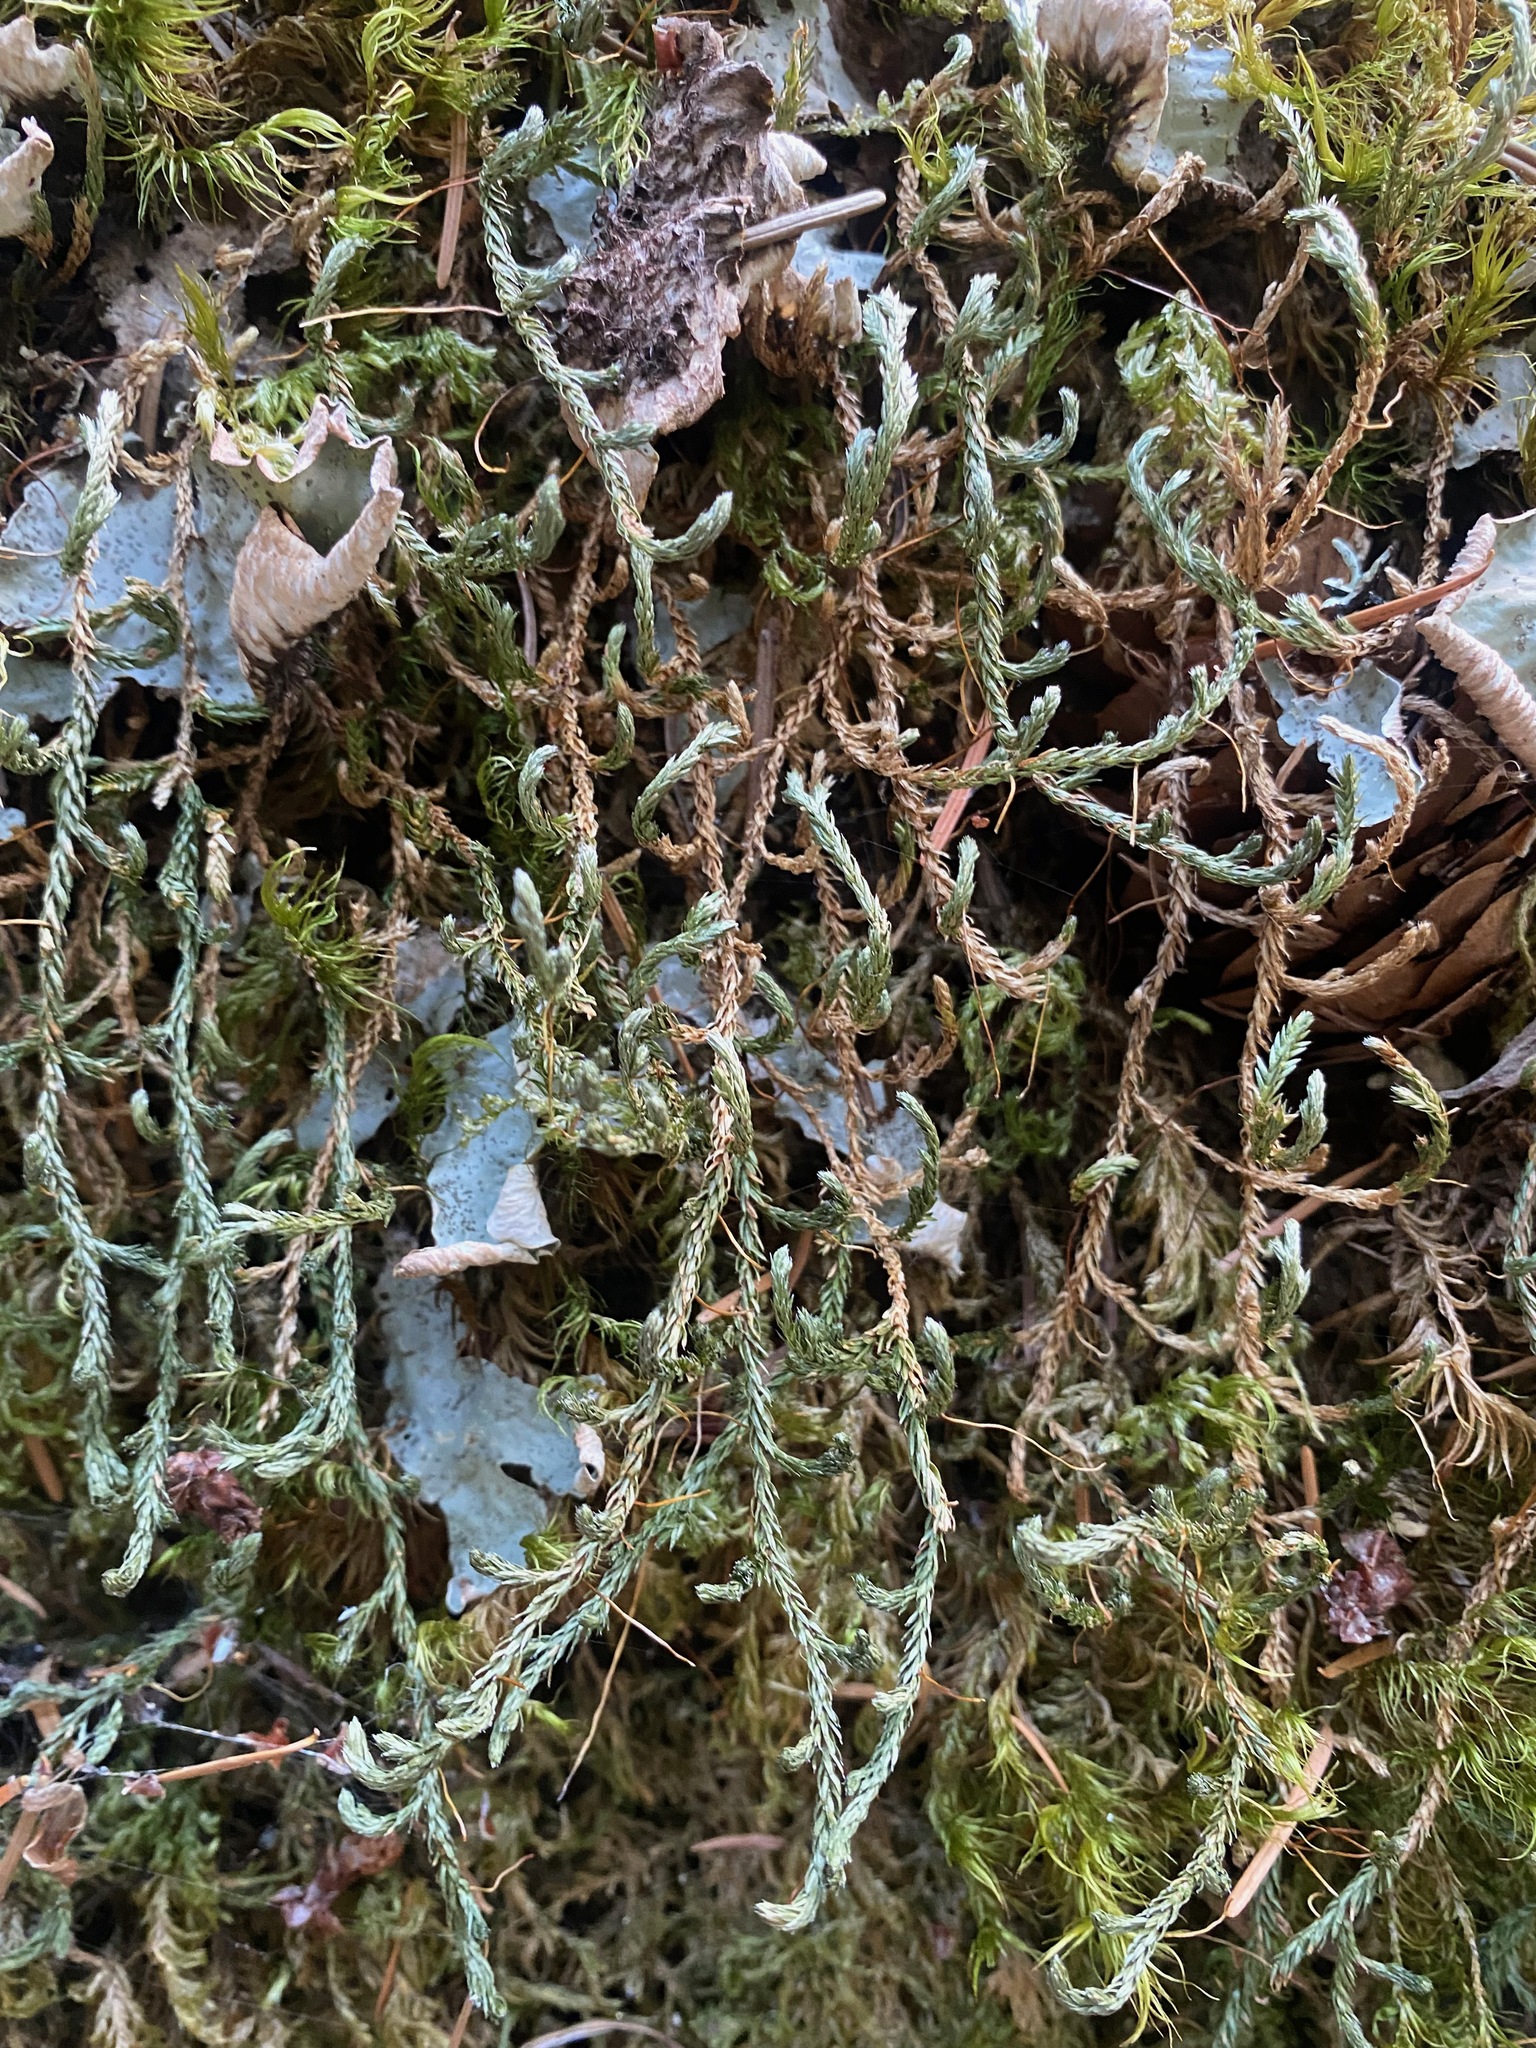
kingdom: Plantae
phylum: Tracheophyta
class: Lycopodiopsida
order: Selaginellales
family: Selaginellaceae
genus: Selaginella
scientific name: Selaginella wallacei
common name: Wallace's selaginella
